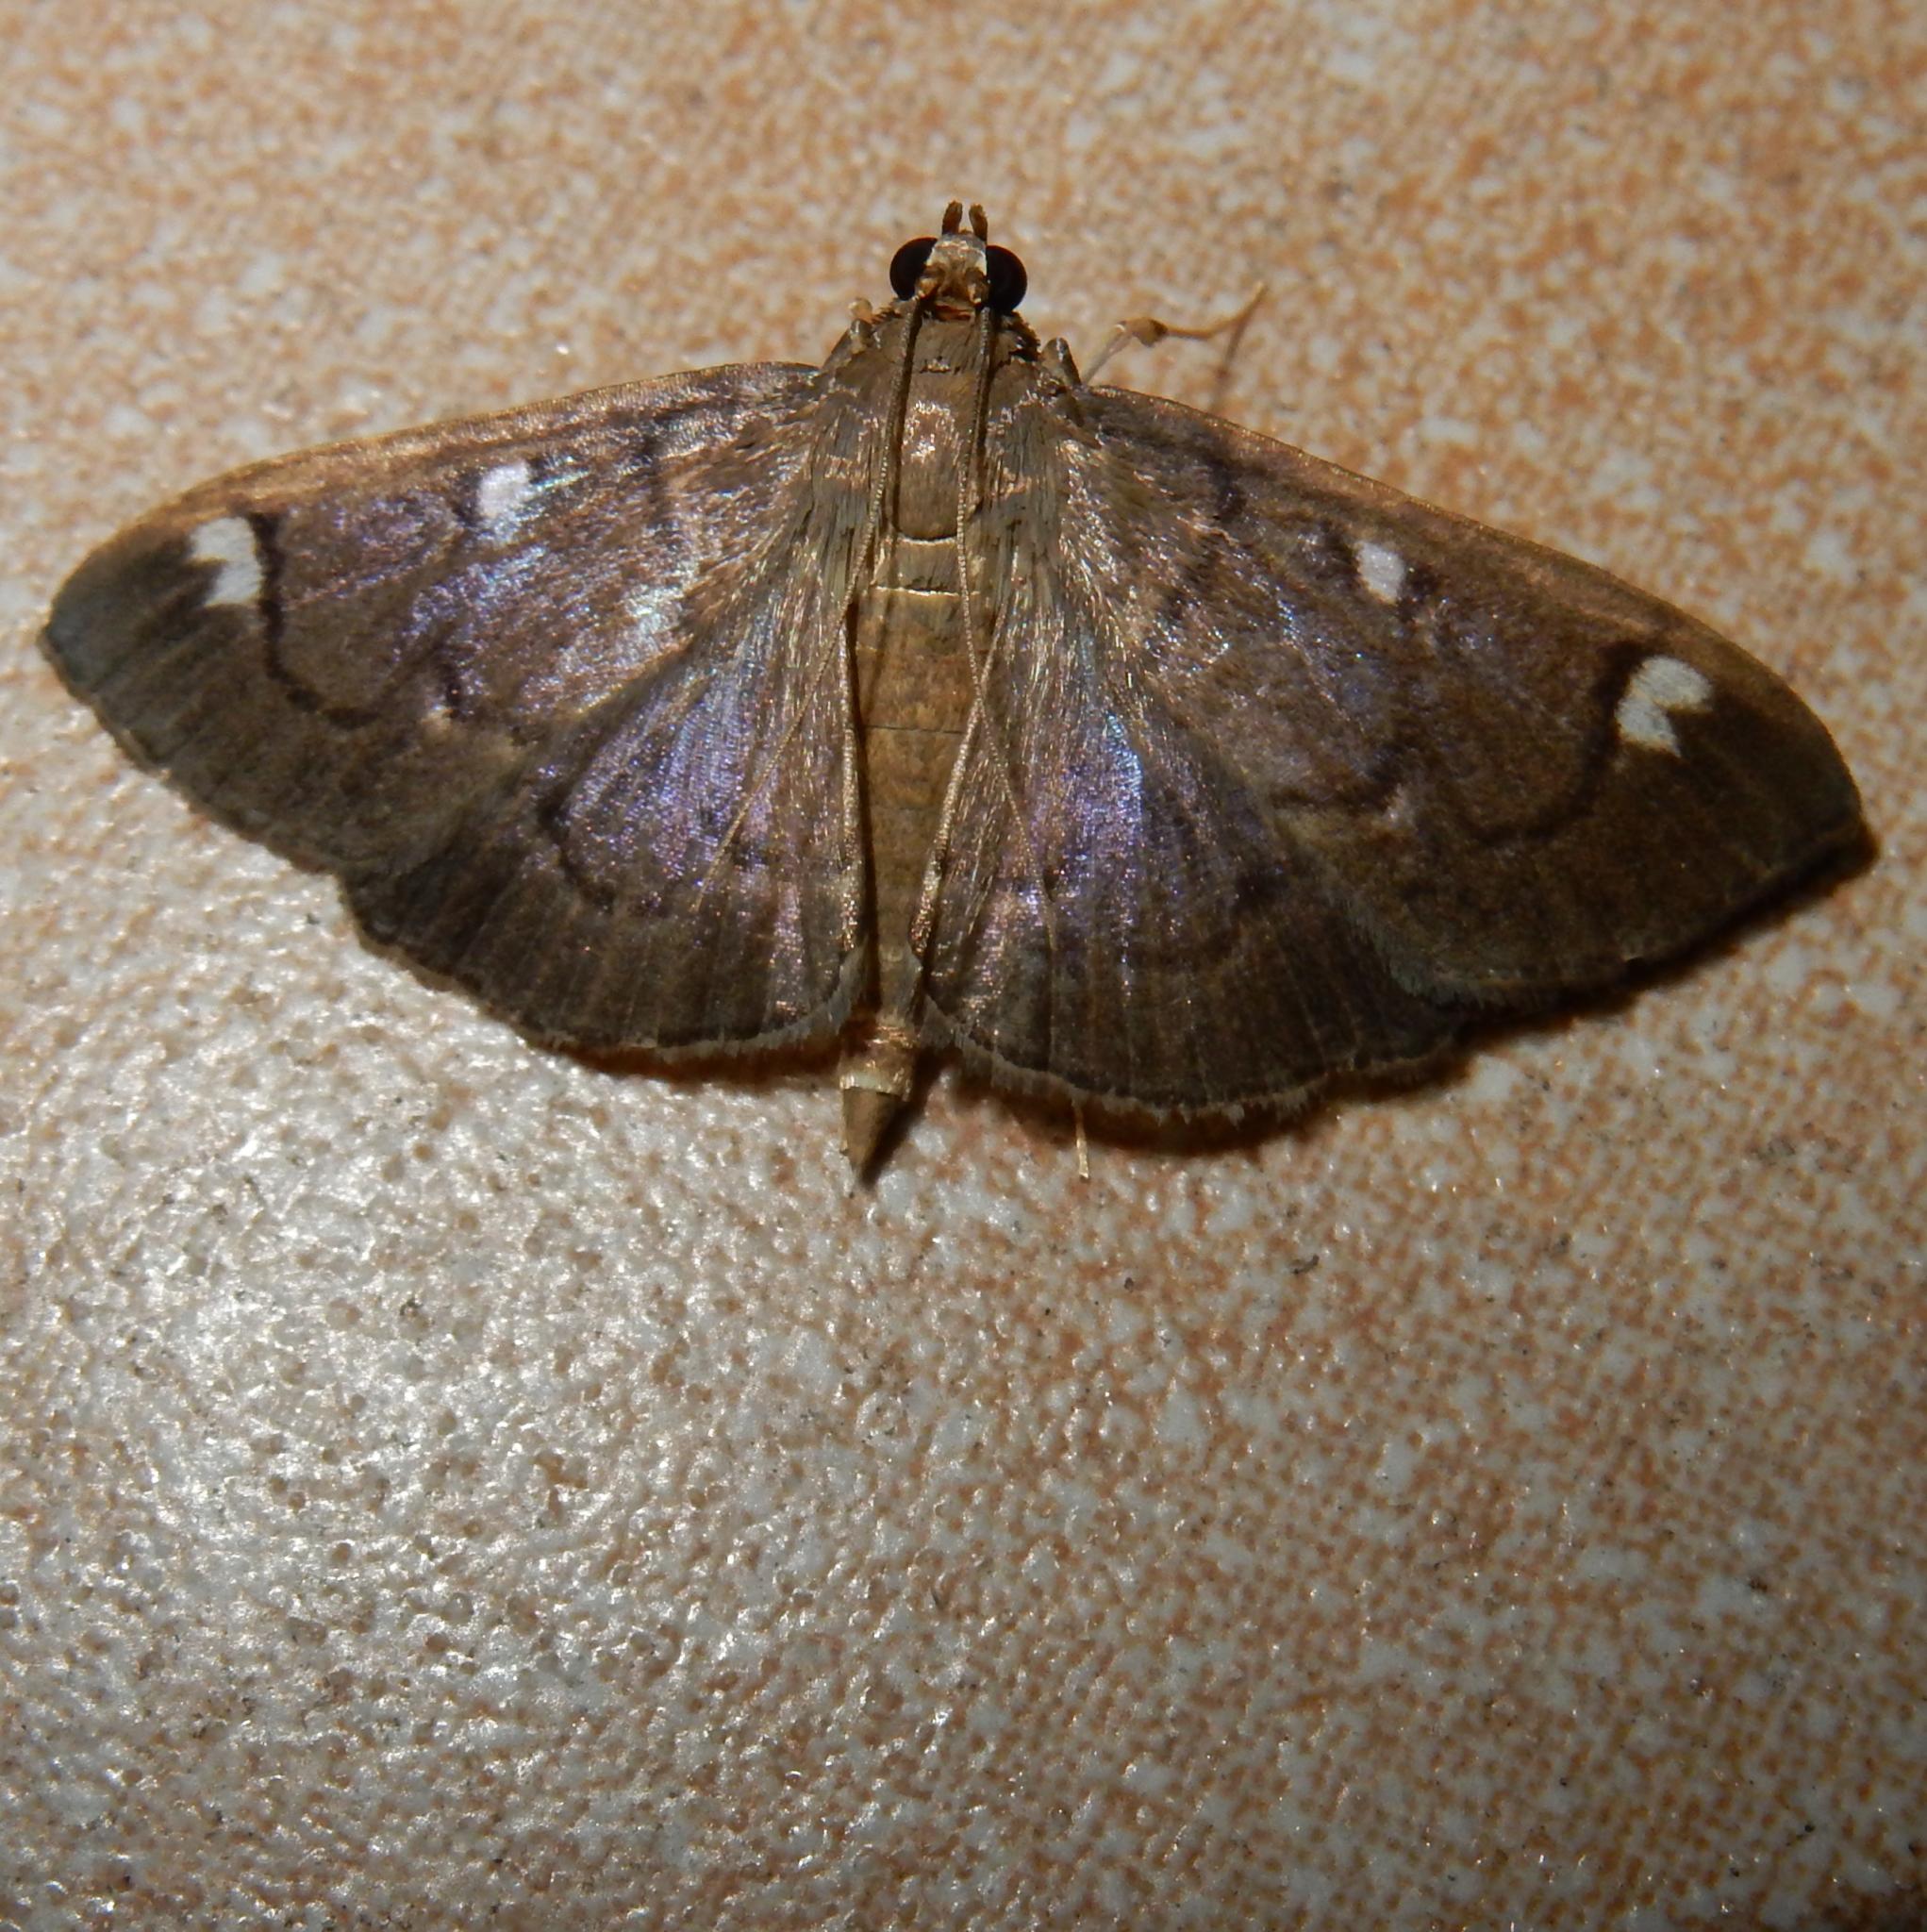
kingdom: Animalia
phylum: Arthropoda
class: Insecta
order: Lepidoptera
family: Crambidae
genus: Syllepte
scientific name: Syllepte purpurascens
